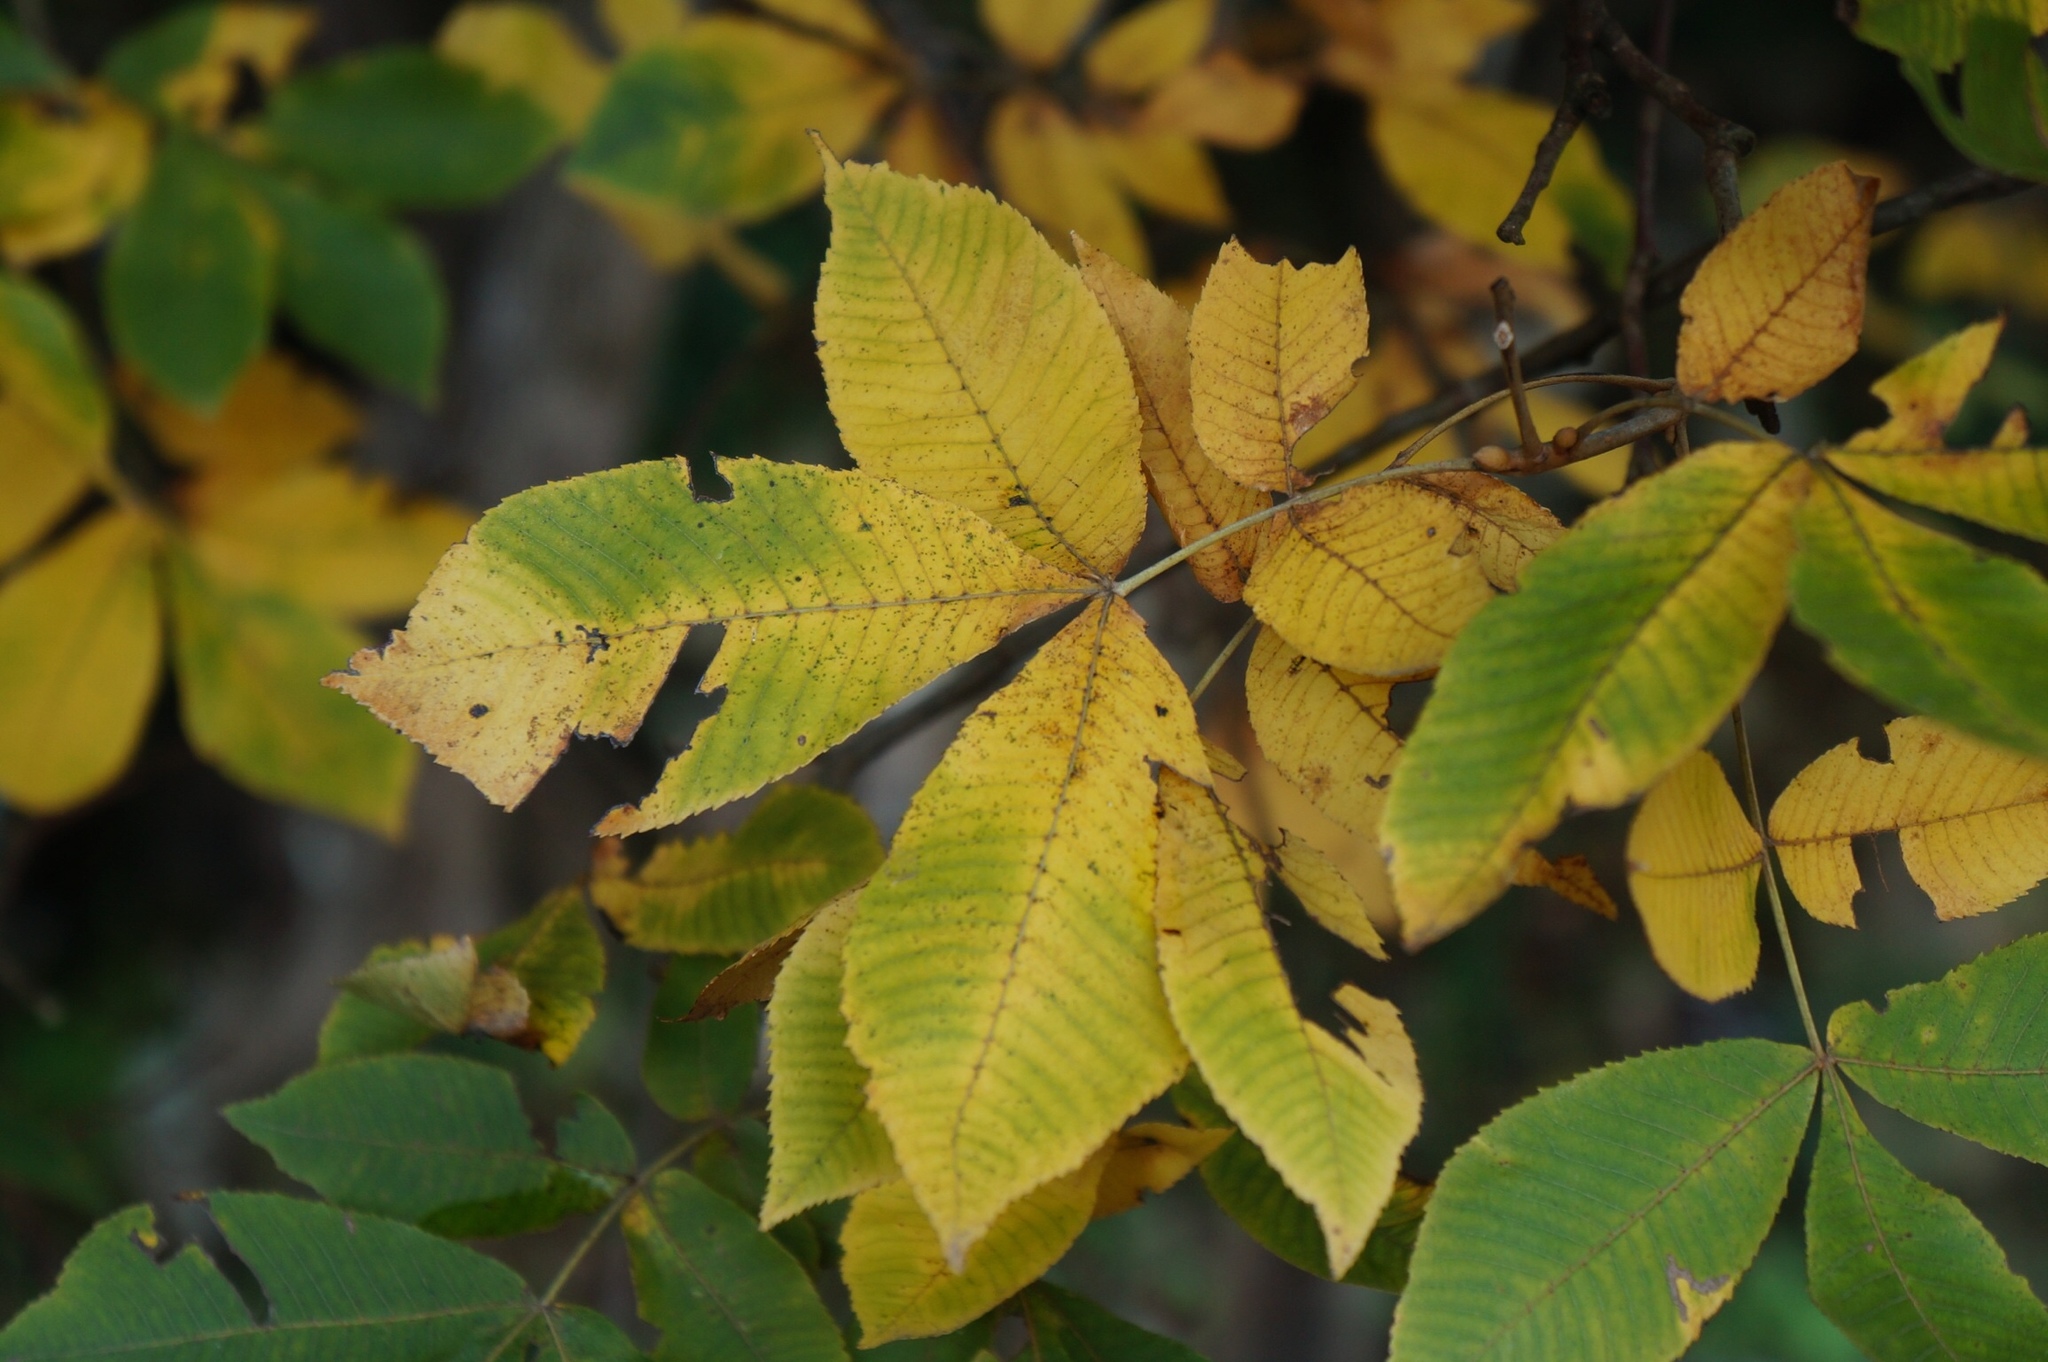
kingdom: Plantae
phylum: Tracheophyta
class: Magnoliopsida
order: Fagales
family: Juglandaceae
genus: Carya
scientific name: Carya ovata
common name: Shagbark hickory
